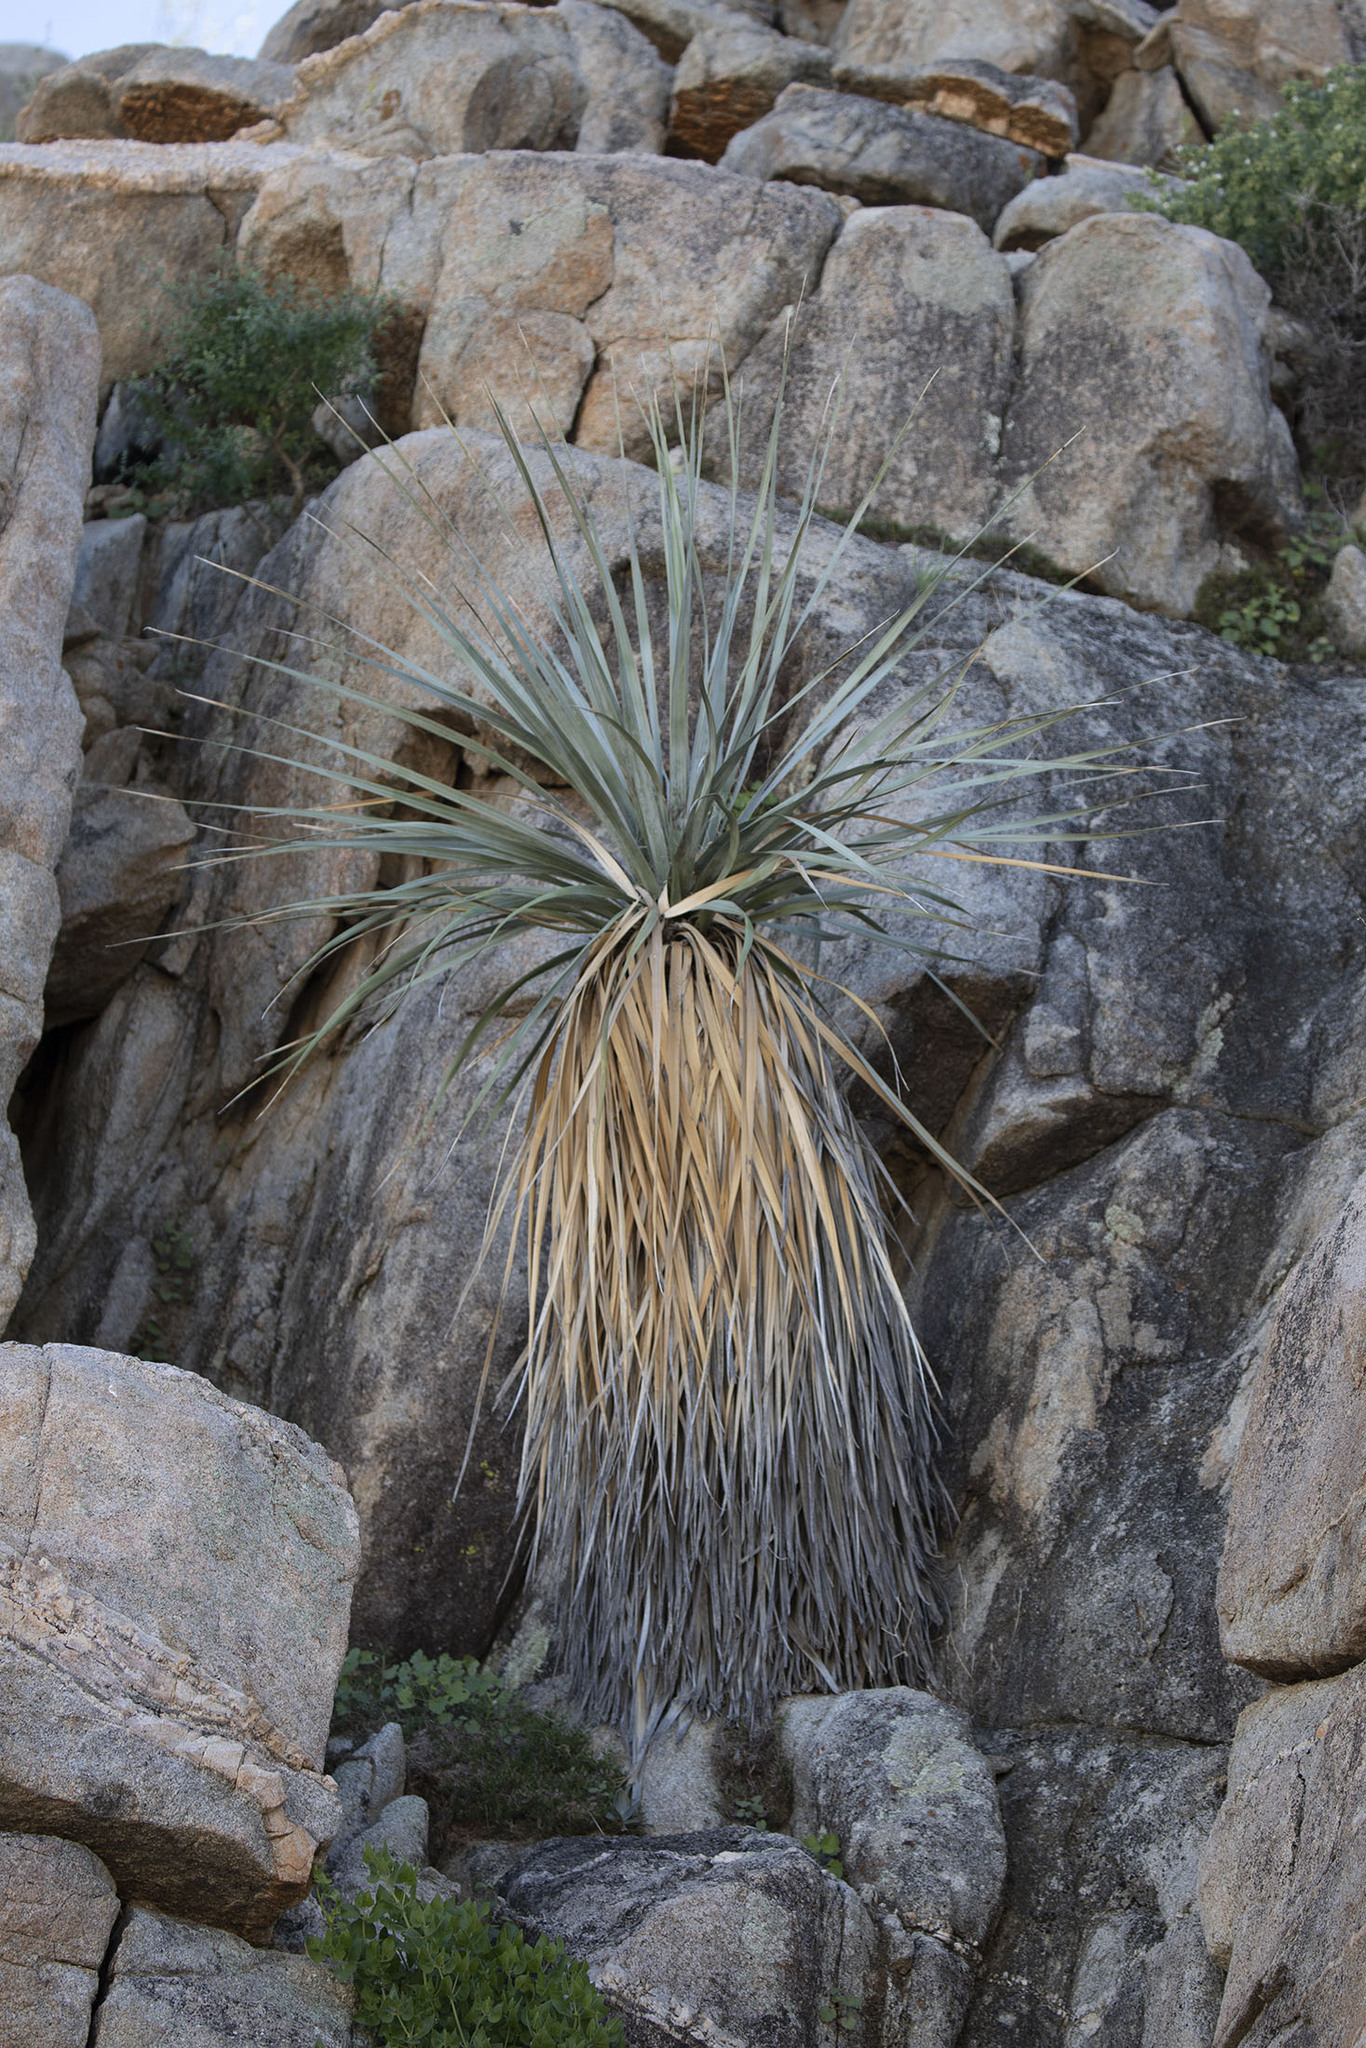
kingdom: Plantae
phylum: Tracheophyta
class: Liliopsida
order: Asparagales
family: Asparagaceae
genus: Nolina
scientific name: Nolina bigelovii
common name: Bigelow bear-grass
